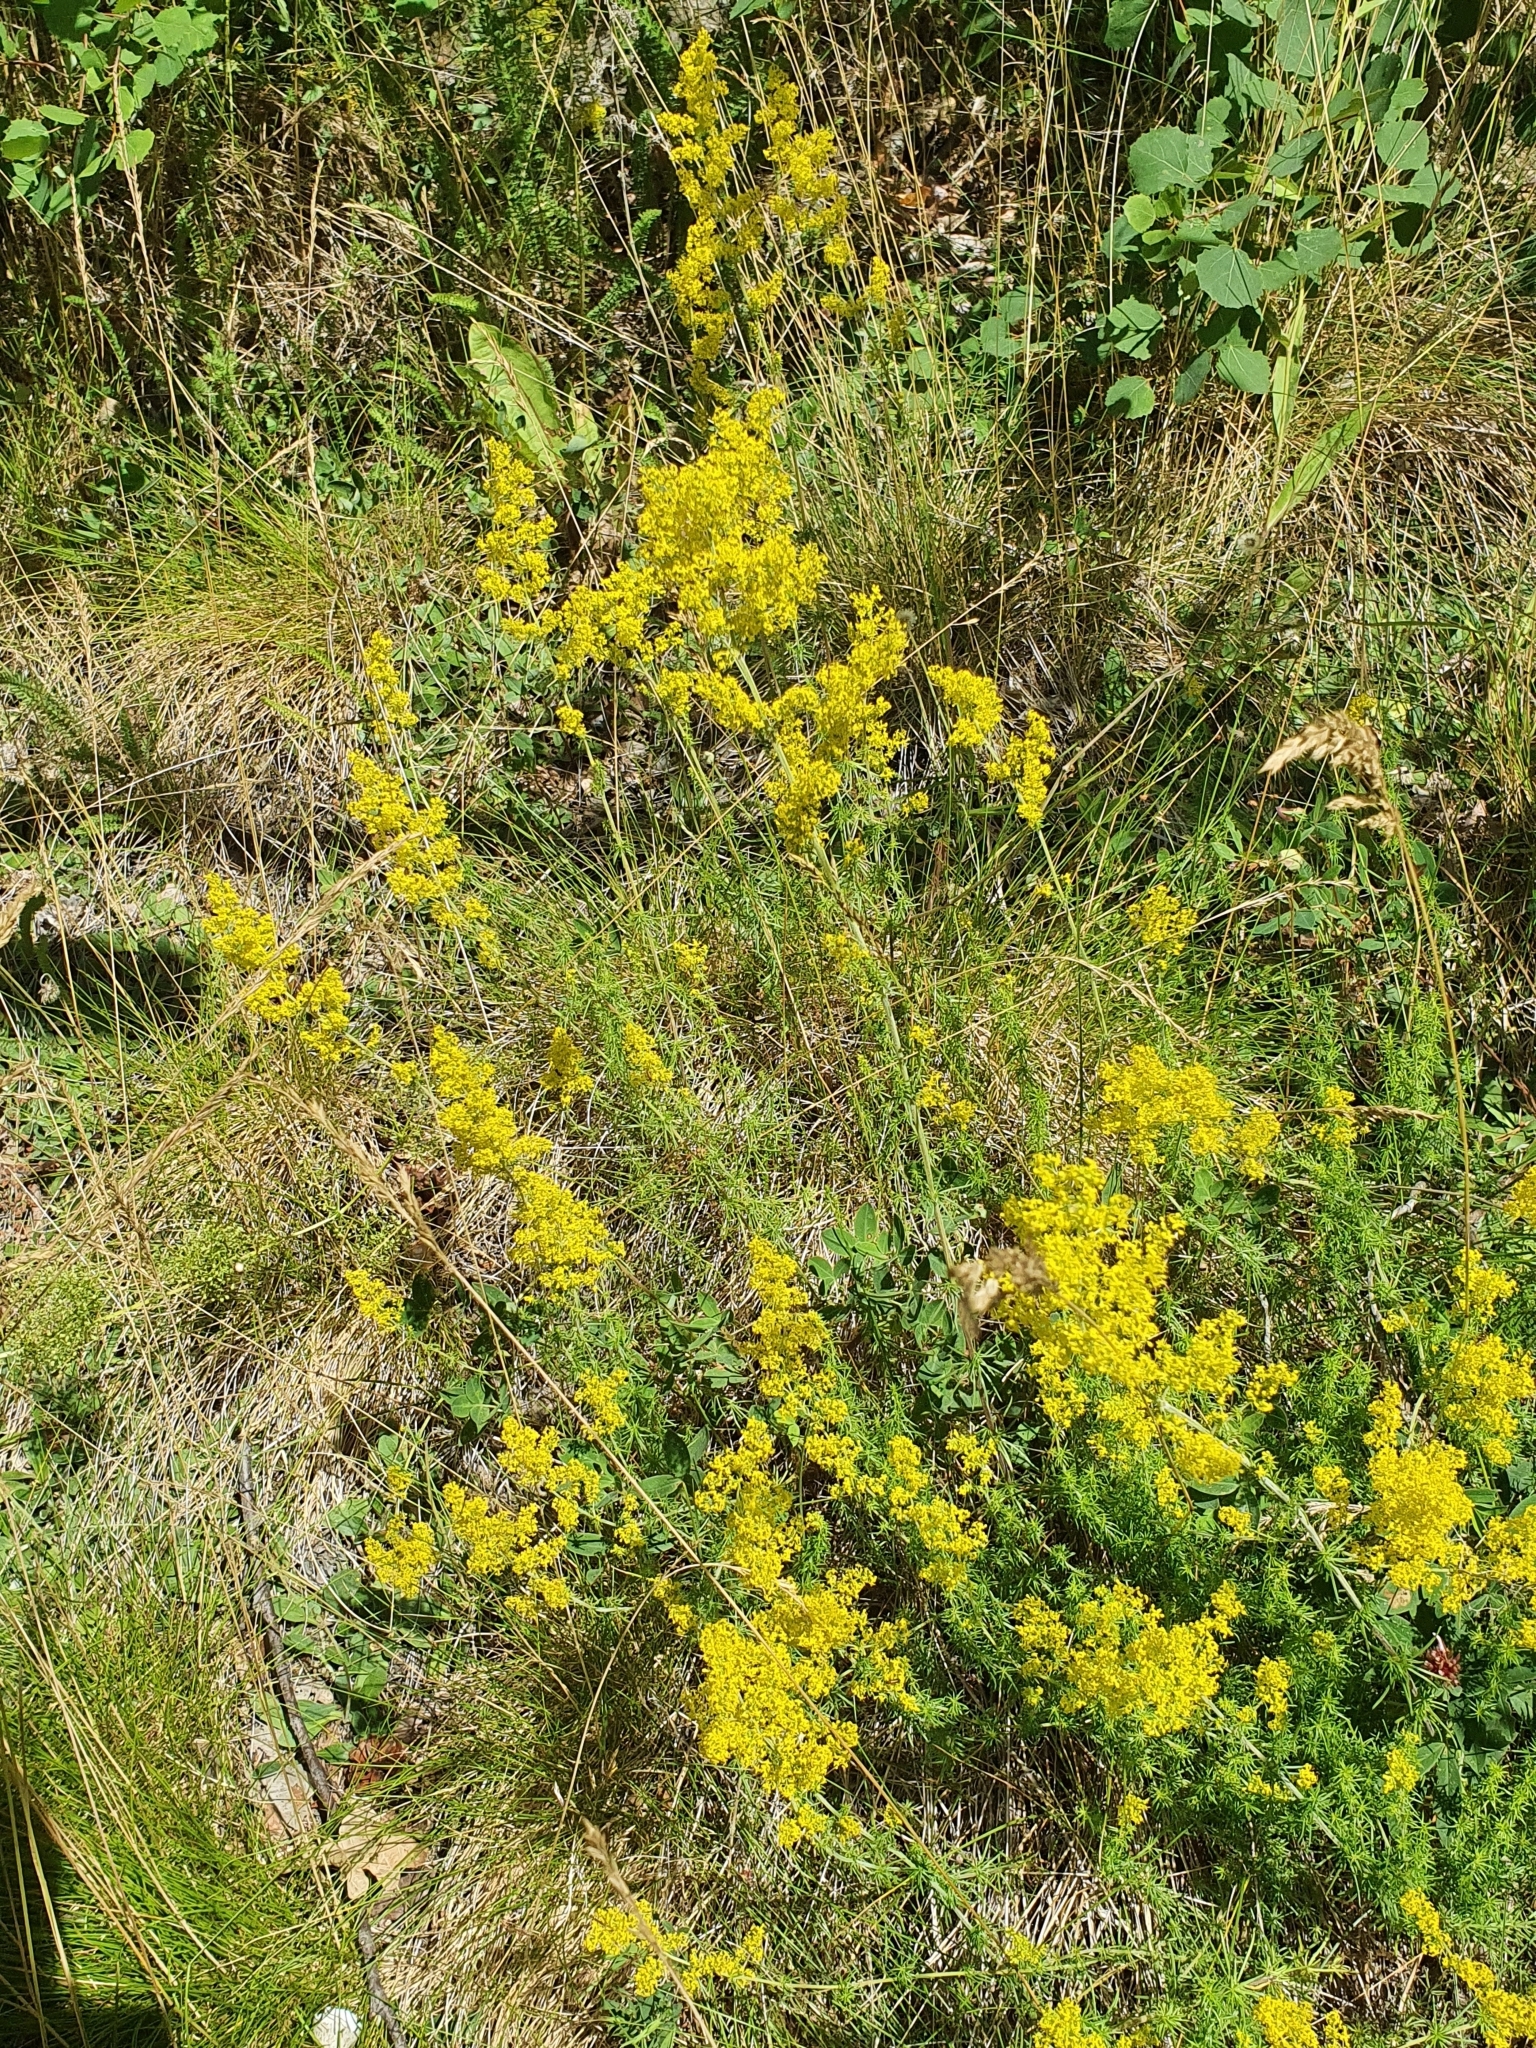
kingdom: Plantae
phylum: Tracheophyta
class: Magnoliopsida
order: Gentianales
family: Rubiaceae
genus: Galium
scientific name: Galium verum
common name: Lady's bedstraw
